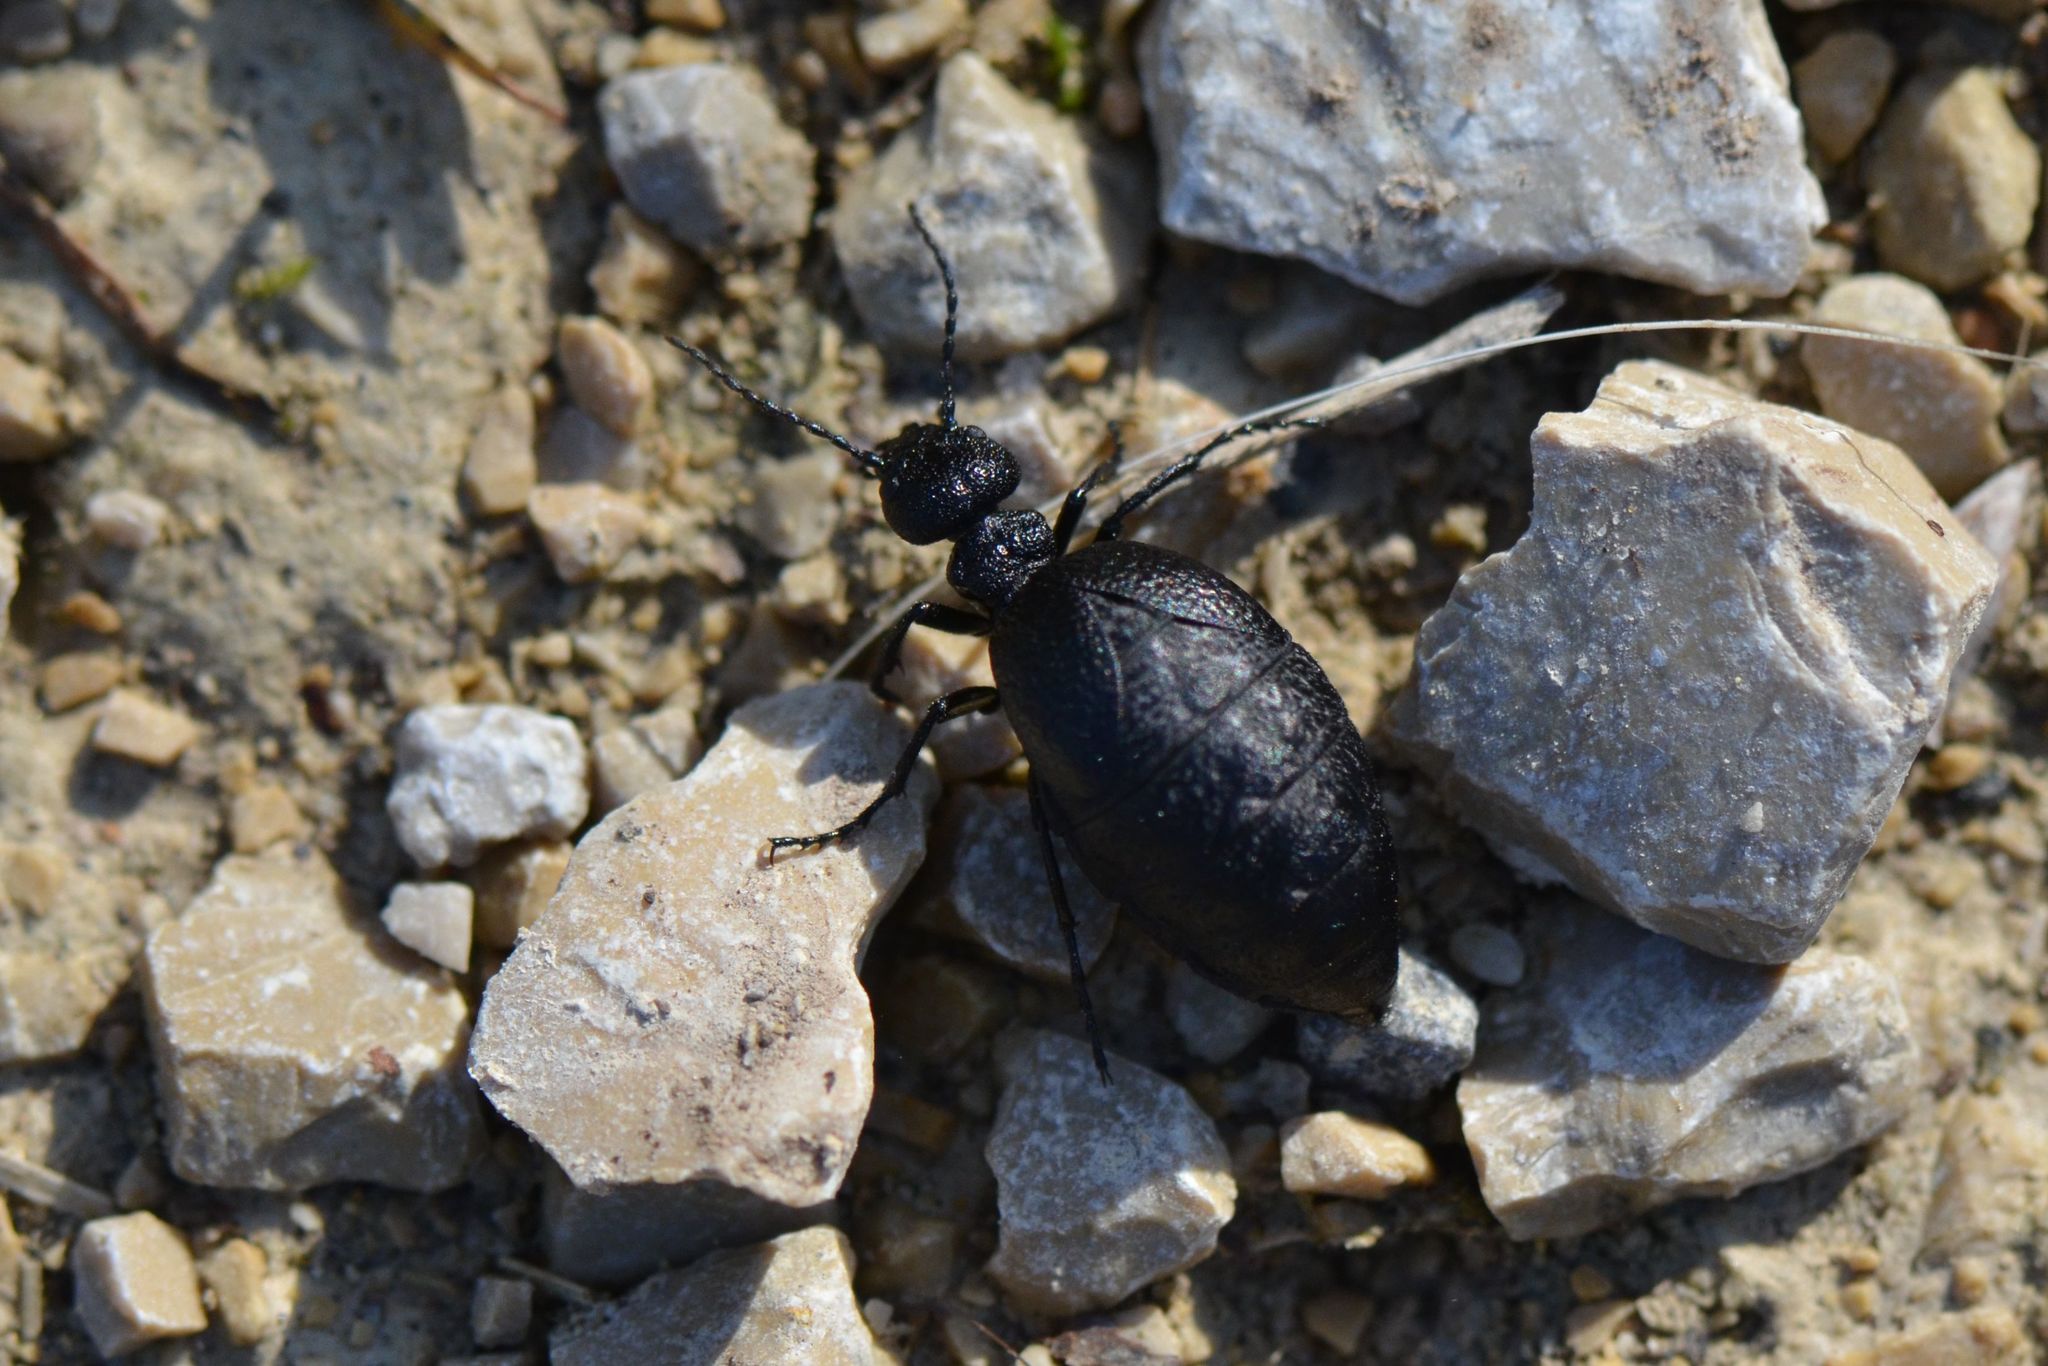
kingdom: Animalia
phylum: Arthropoda
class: Insecta
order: Coleoptera
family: Meloidae
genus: Meloe
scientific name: Meloe rugosus
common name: Rugged oil-beetle
